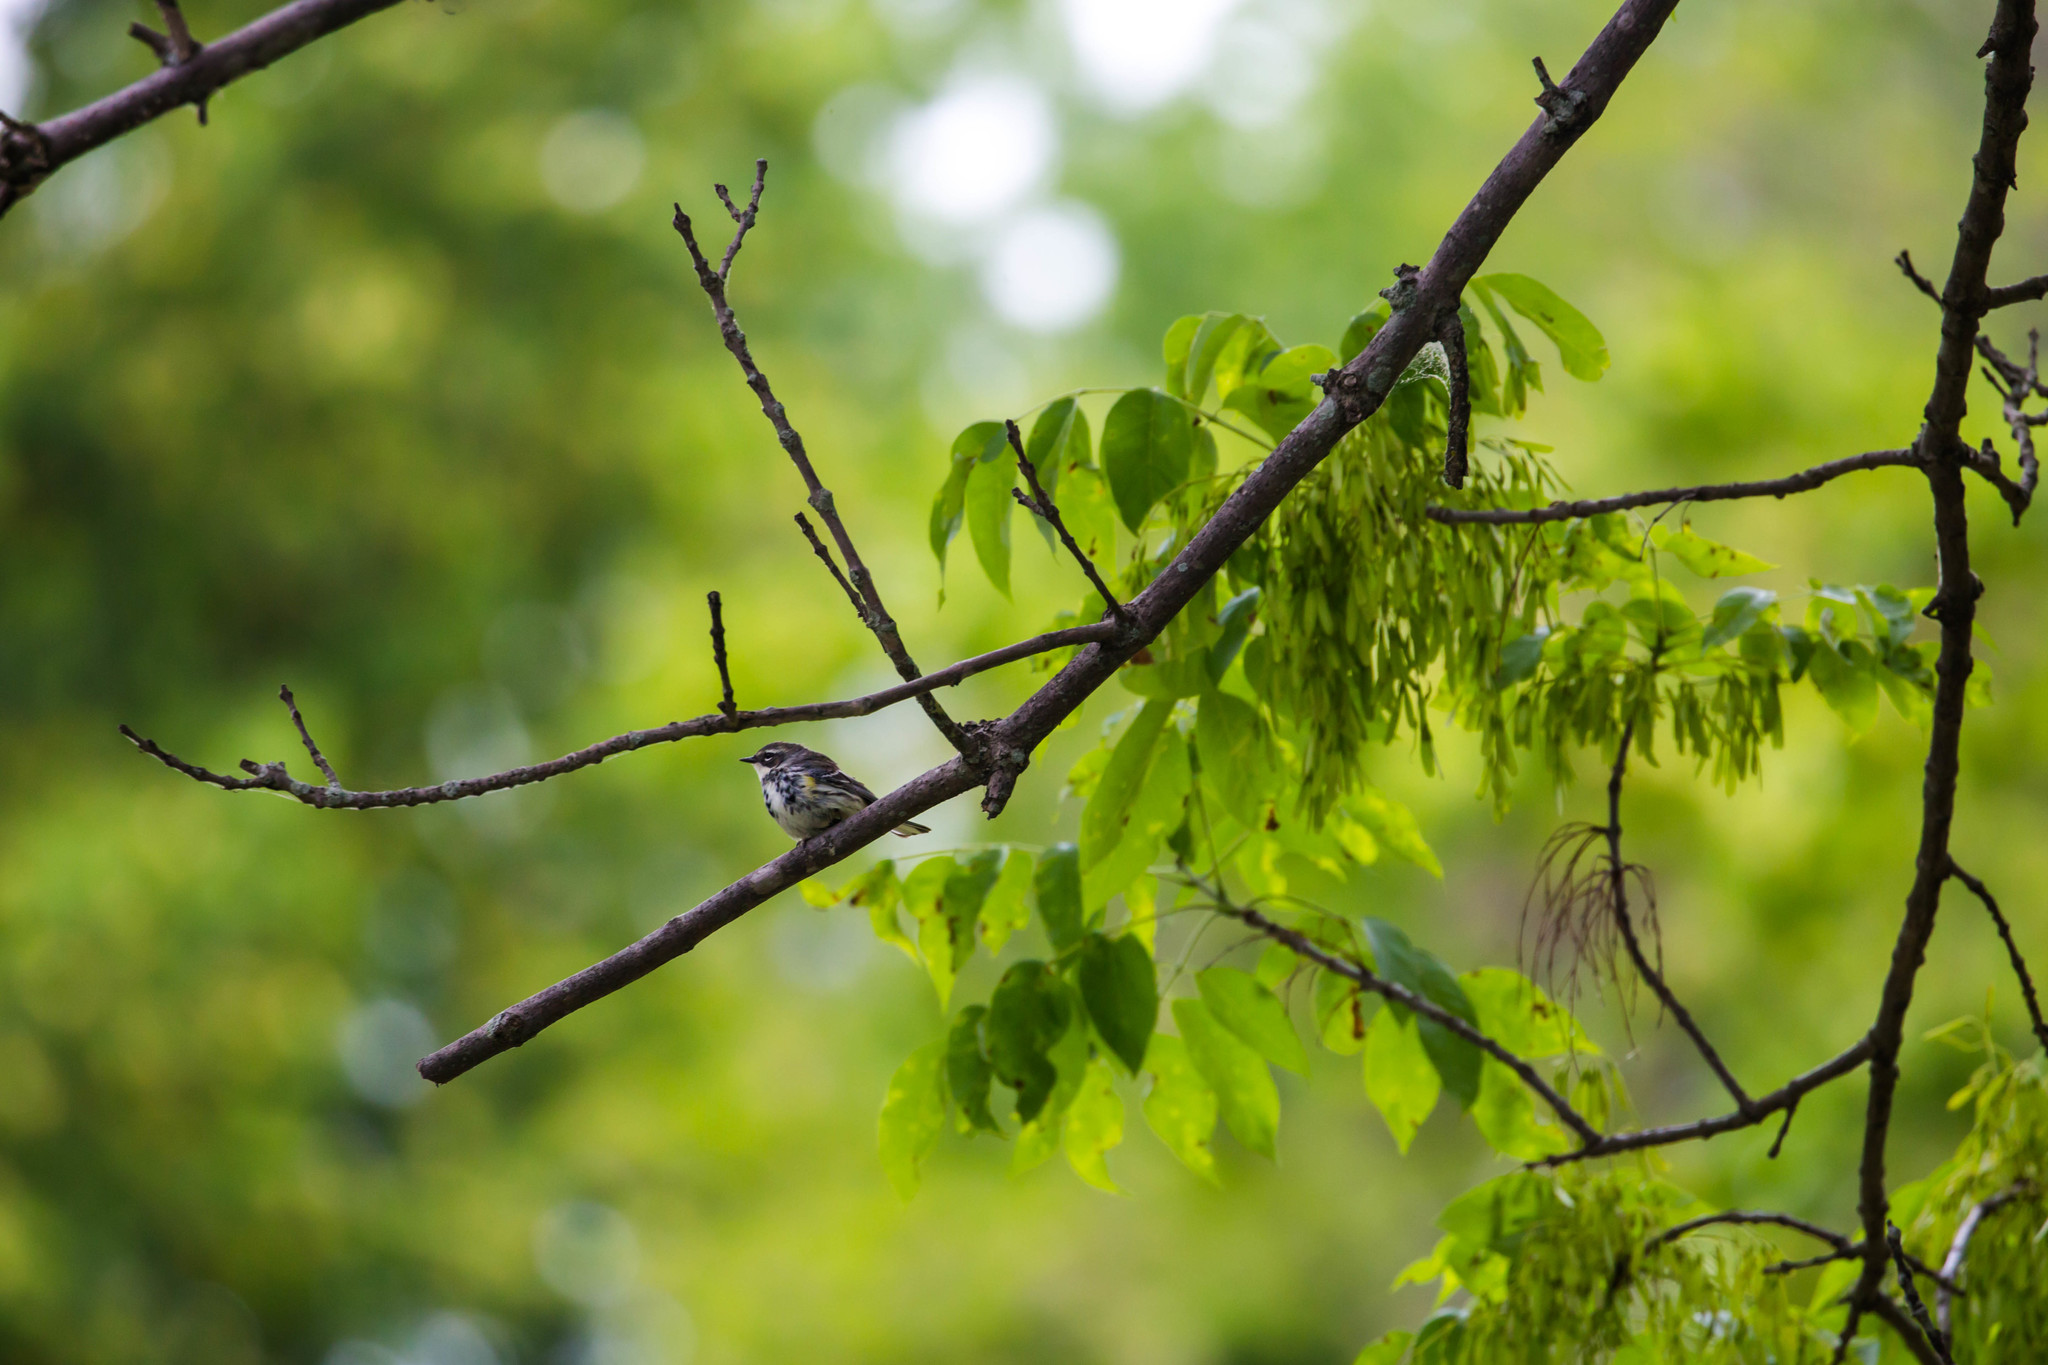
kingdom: Animalia
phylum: Chordata
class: Aves
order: Passeriformes
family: Parulidae
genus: Setophaga
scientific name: Setophaga coronata
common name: Myrtle warbler
